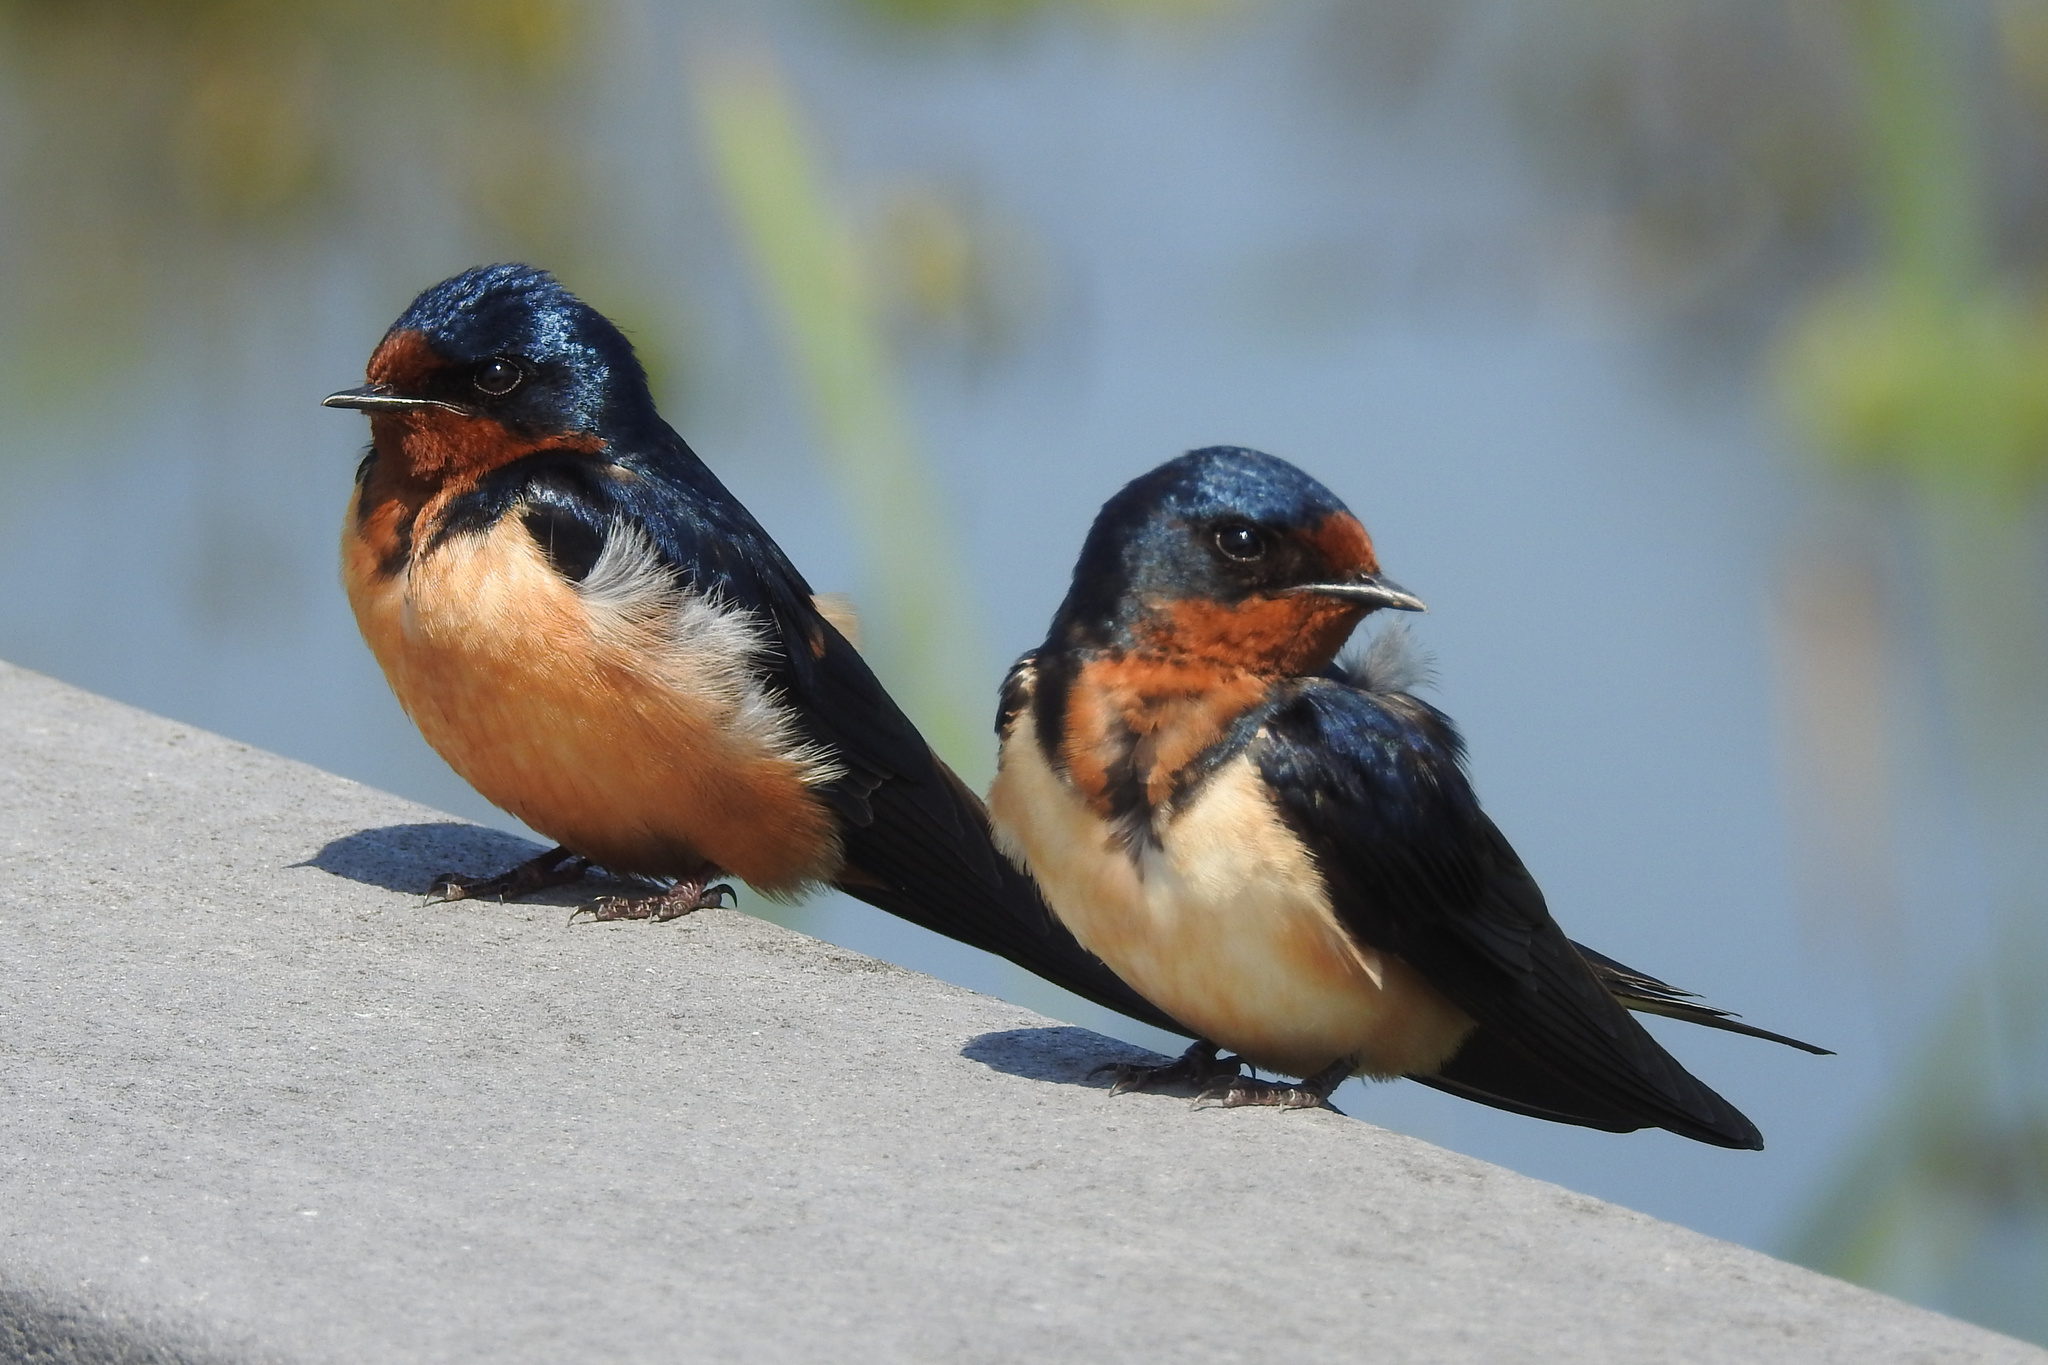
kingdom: Animalia
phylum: Chordata
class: Aves
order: Passeriformes
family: Hirundinidae
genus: Hirundo
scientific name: Hirundo rustica
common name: Barn swallow
